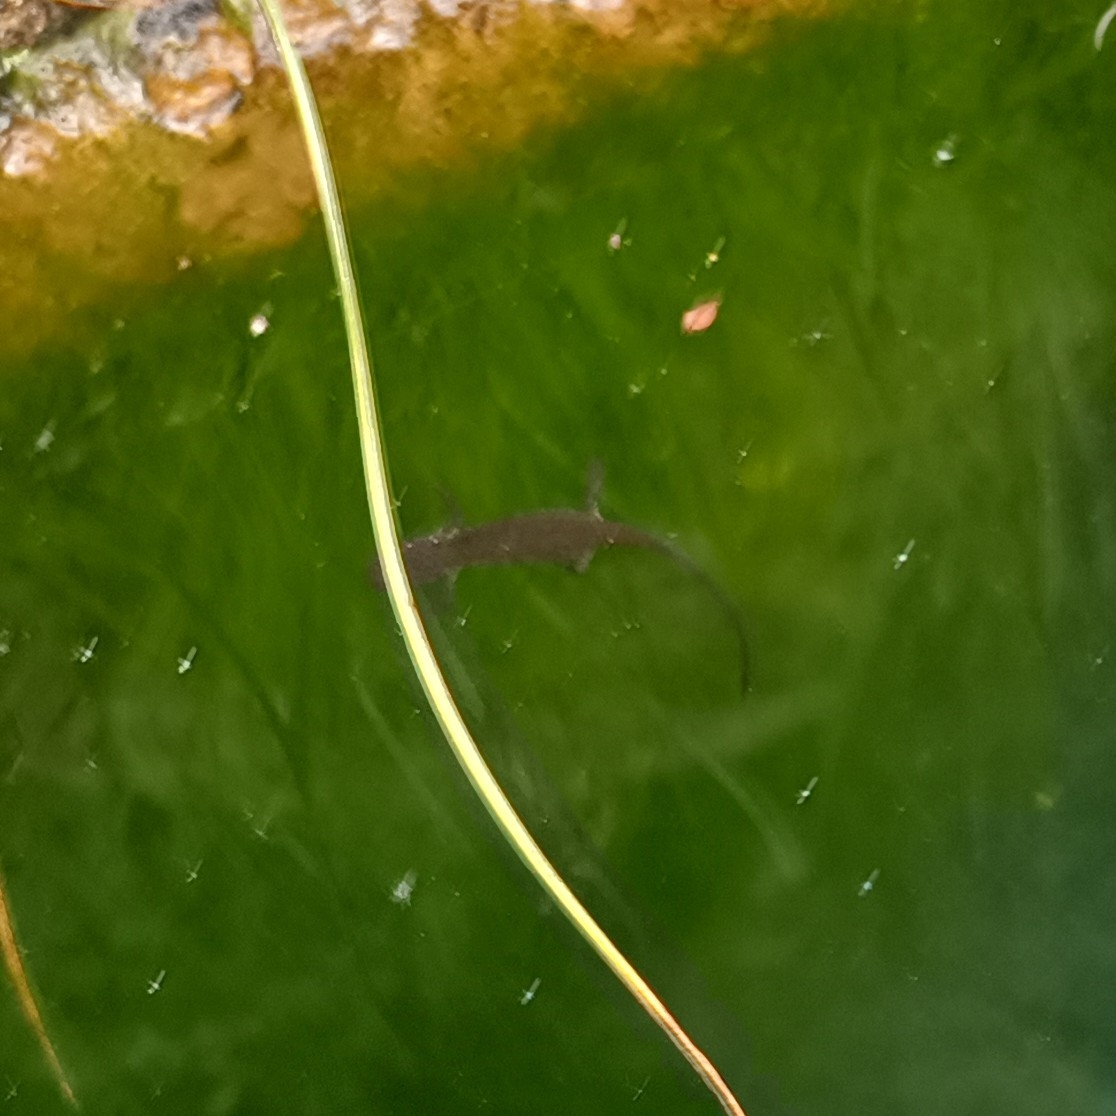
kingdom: Animalia
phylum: Chordata
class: Amphibia
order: Caudata
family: Salamandridae
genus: Lissotriton
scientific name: Lissotriton italicus
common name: Italian newt
